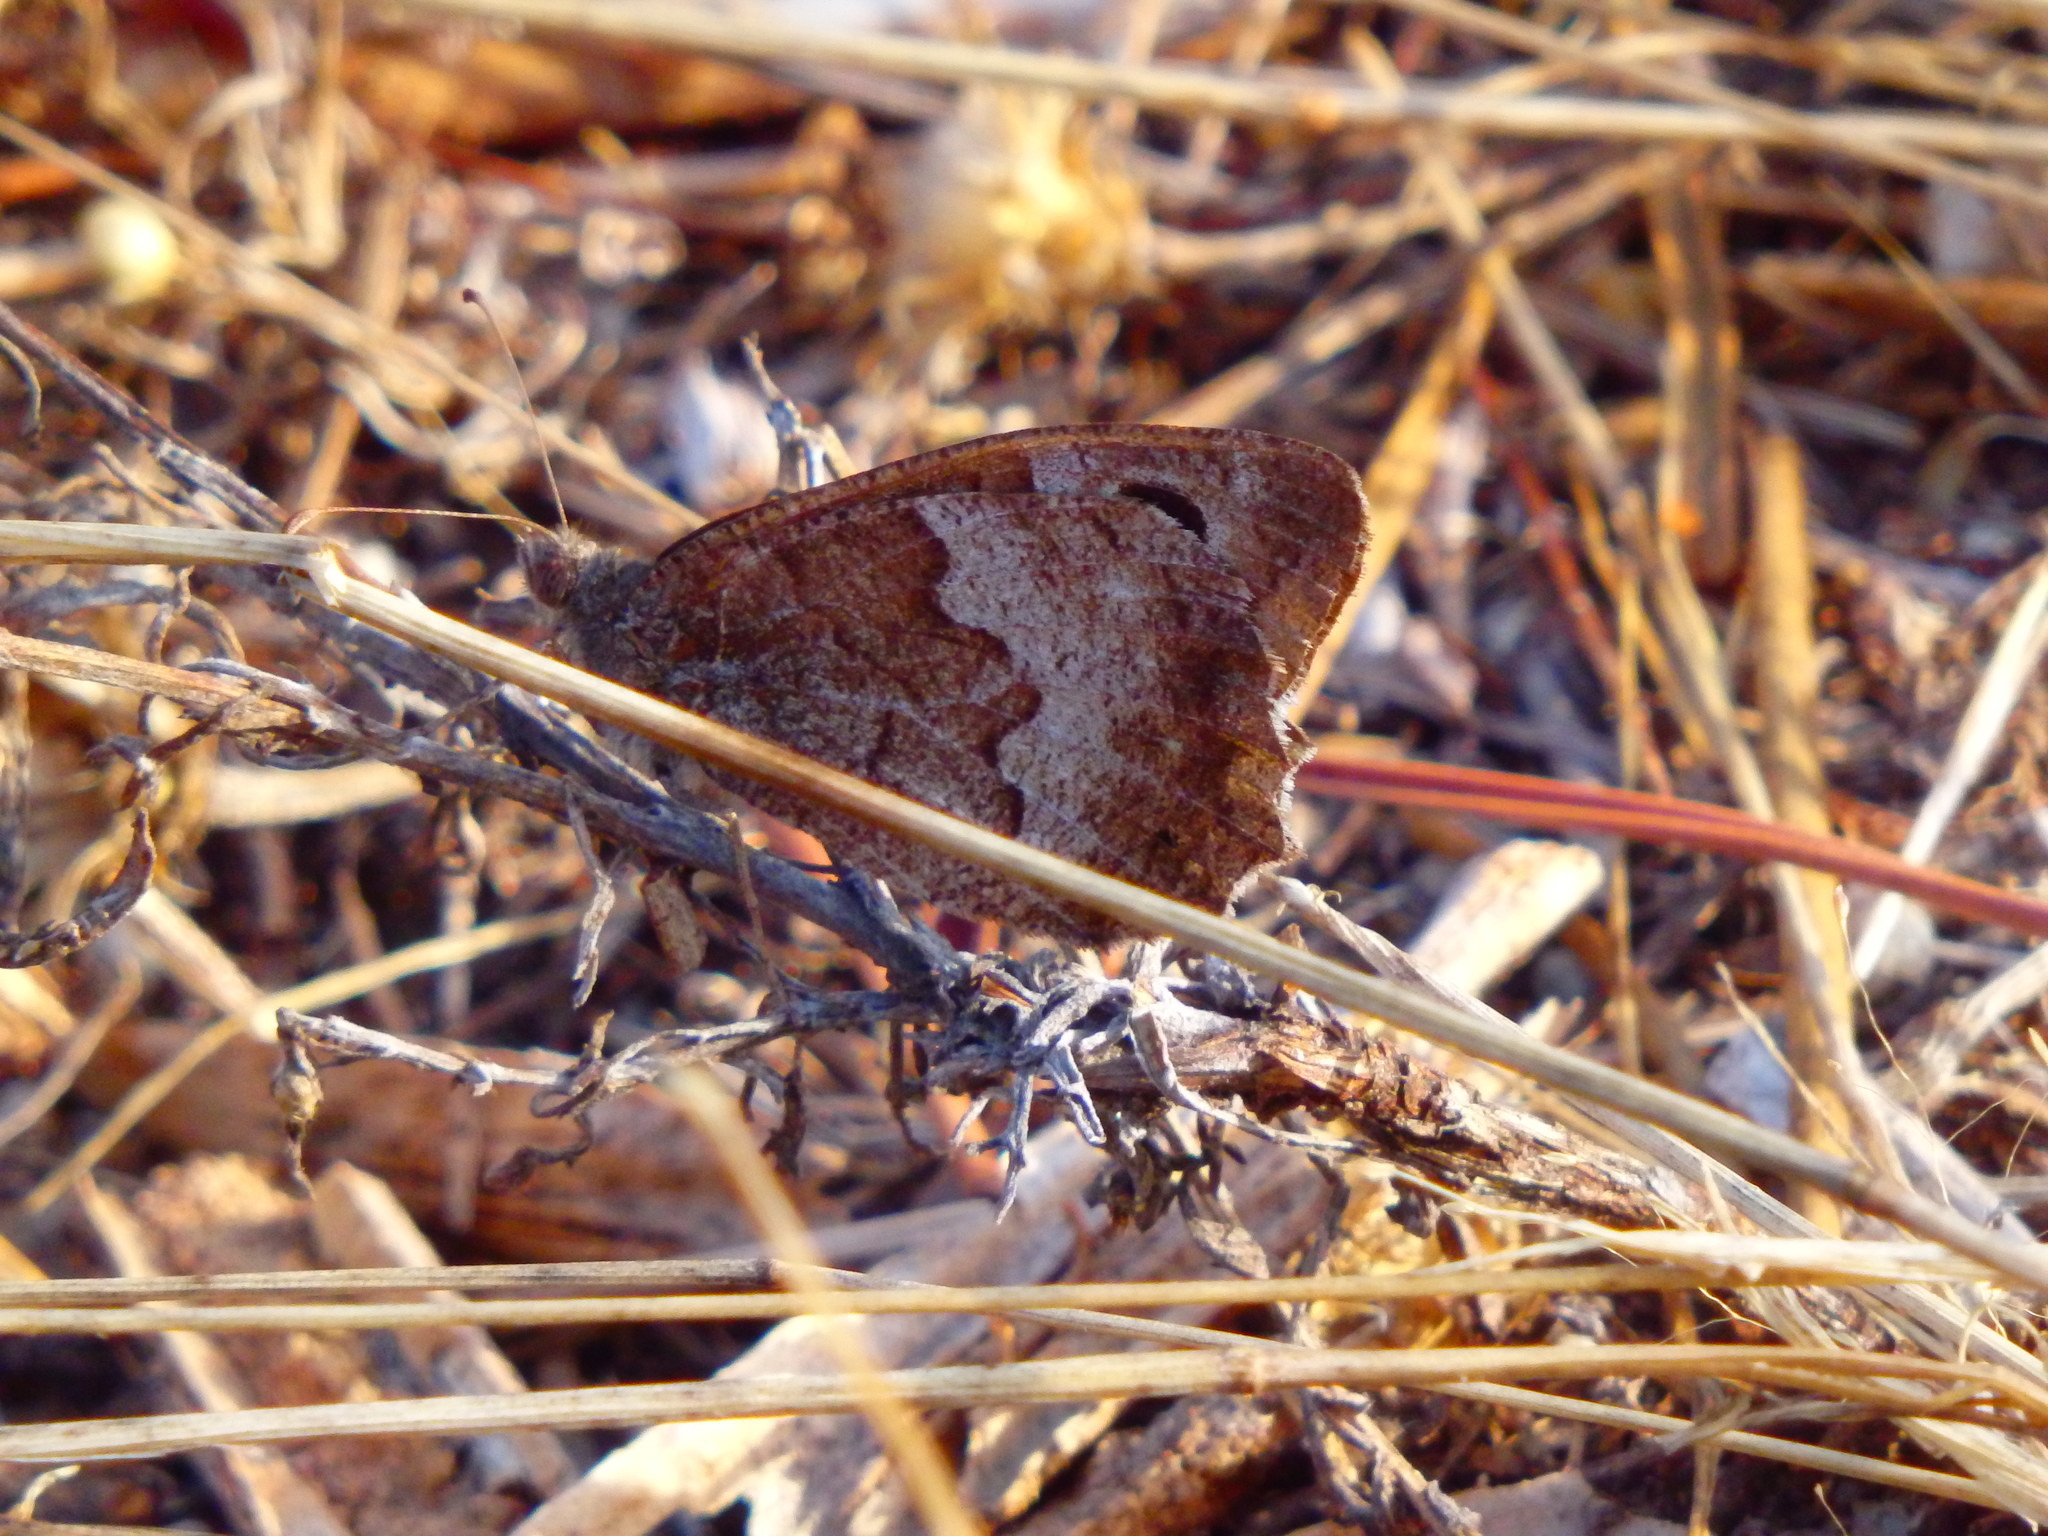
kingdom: Animalia
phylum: Arthropoda
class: Insecta
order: Lepidoptera
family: Nymphalidae
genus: Hipparchia
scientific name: Hipparchia statilinus
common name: Tree grayling
